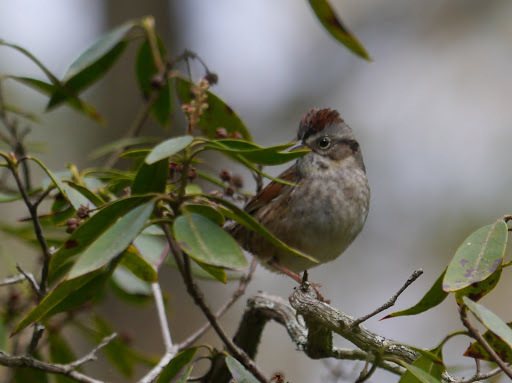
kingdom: Animalia
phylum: Chordata
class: Aves
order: Passeriformes
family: Passerellidae
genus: Melospiza
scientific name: Melospiza georgiana
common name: Swamp sparrow
